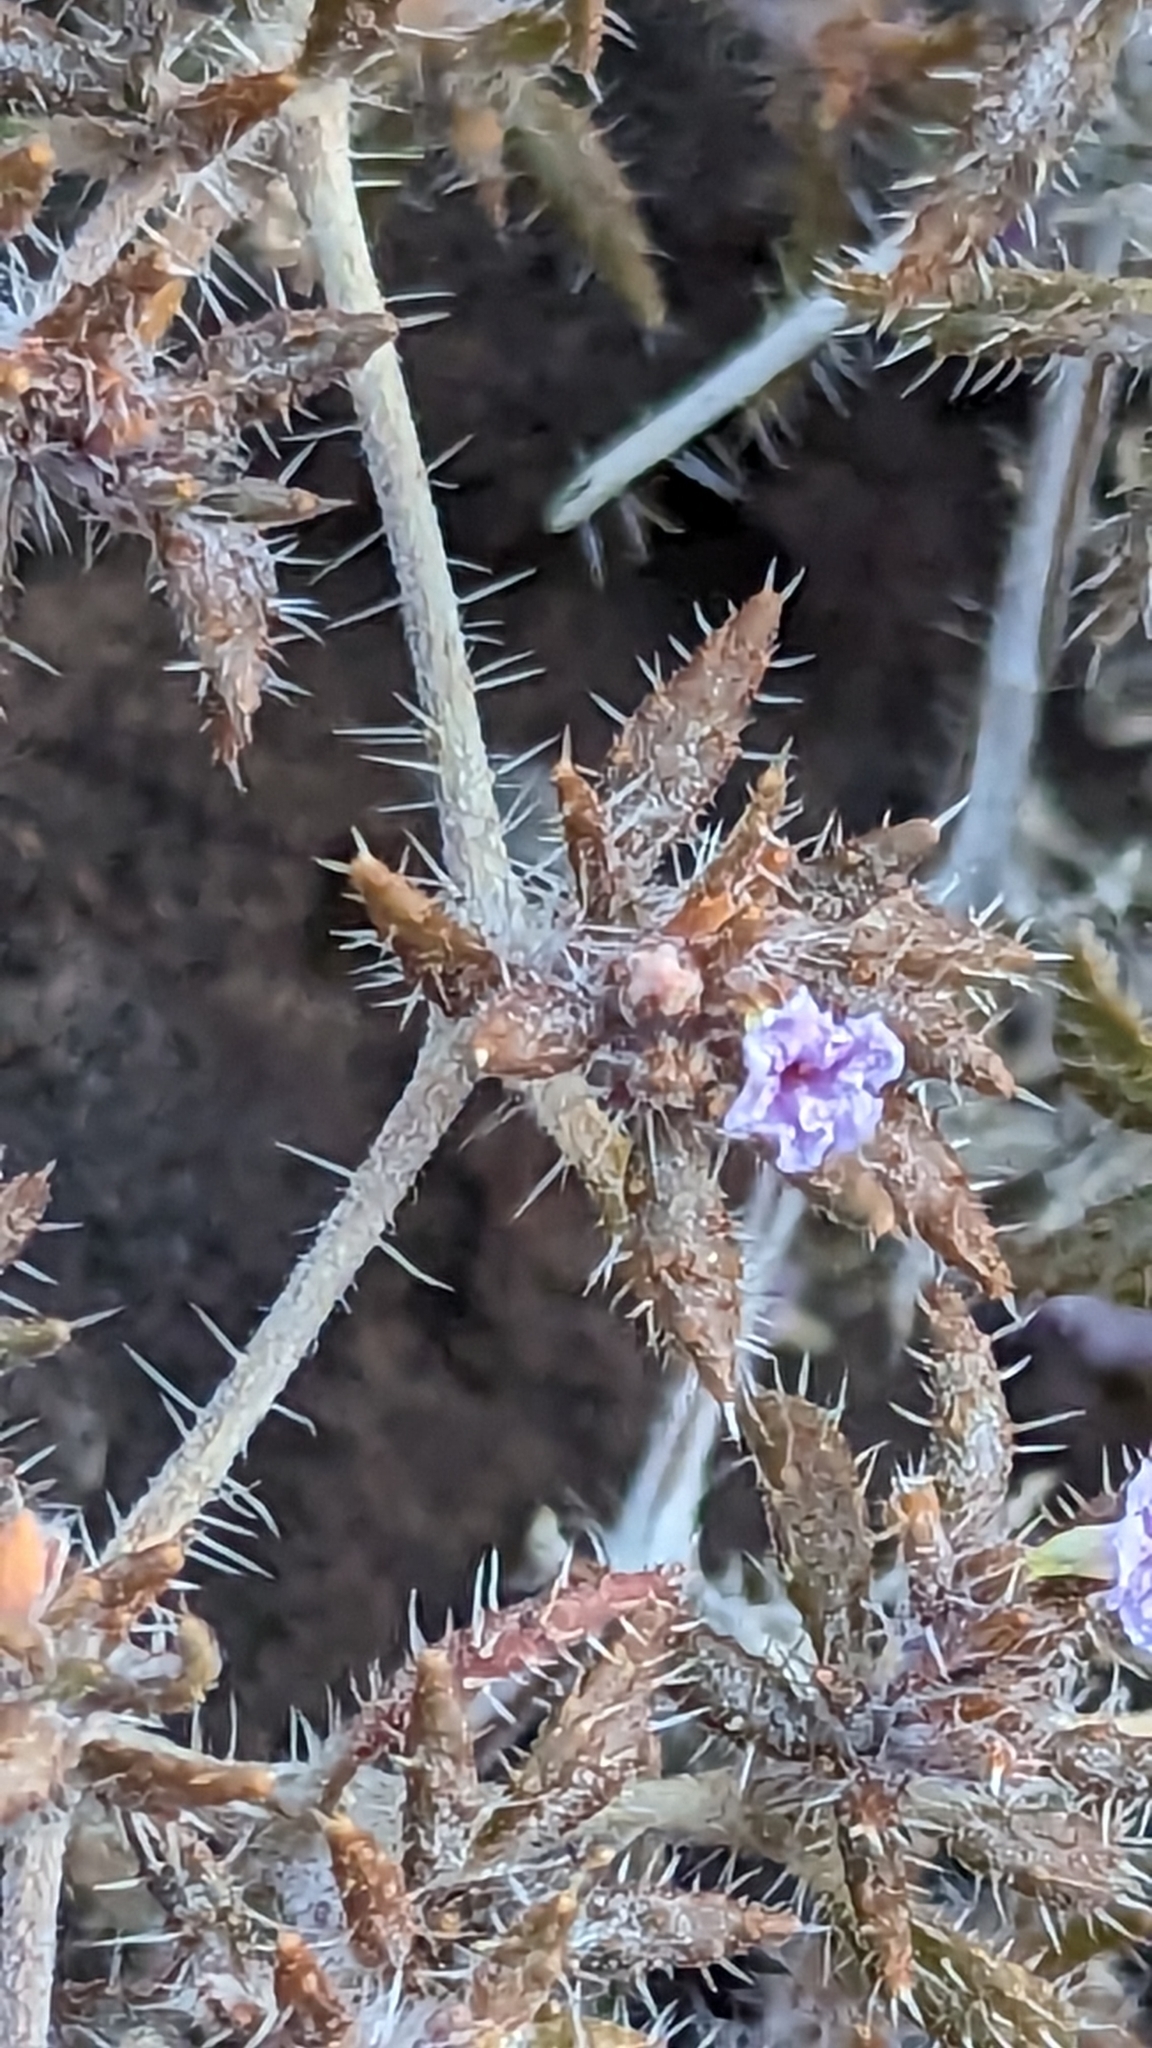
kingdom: Plantae
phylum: Tracheophyta
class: Magnoliopsida
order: Boraginales
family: Ehretiaceae
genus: Tiquilia
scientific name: Tiquilia latior
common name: Matted tiquilia
